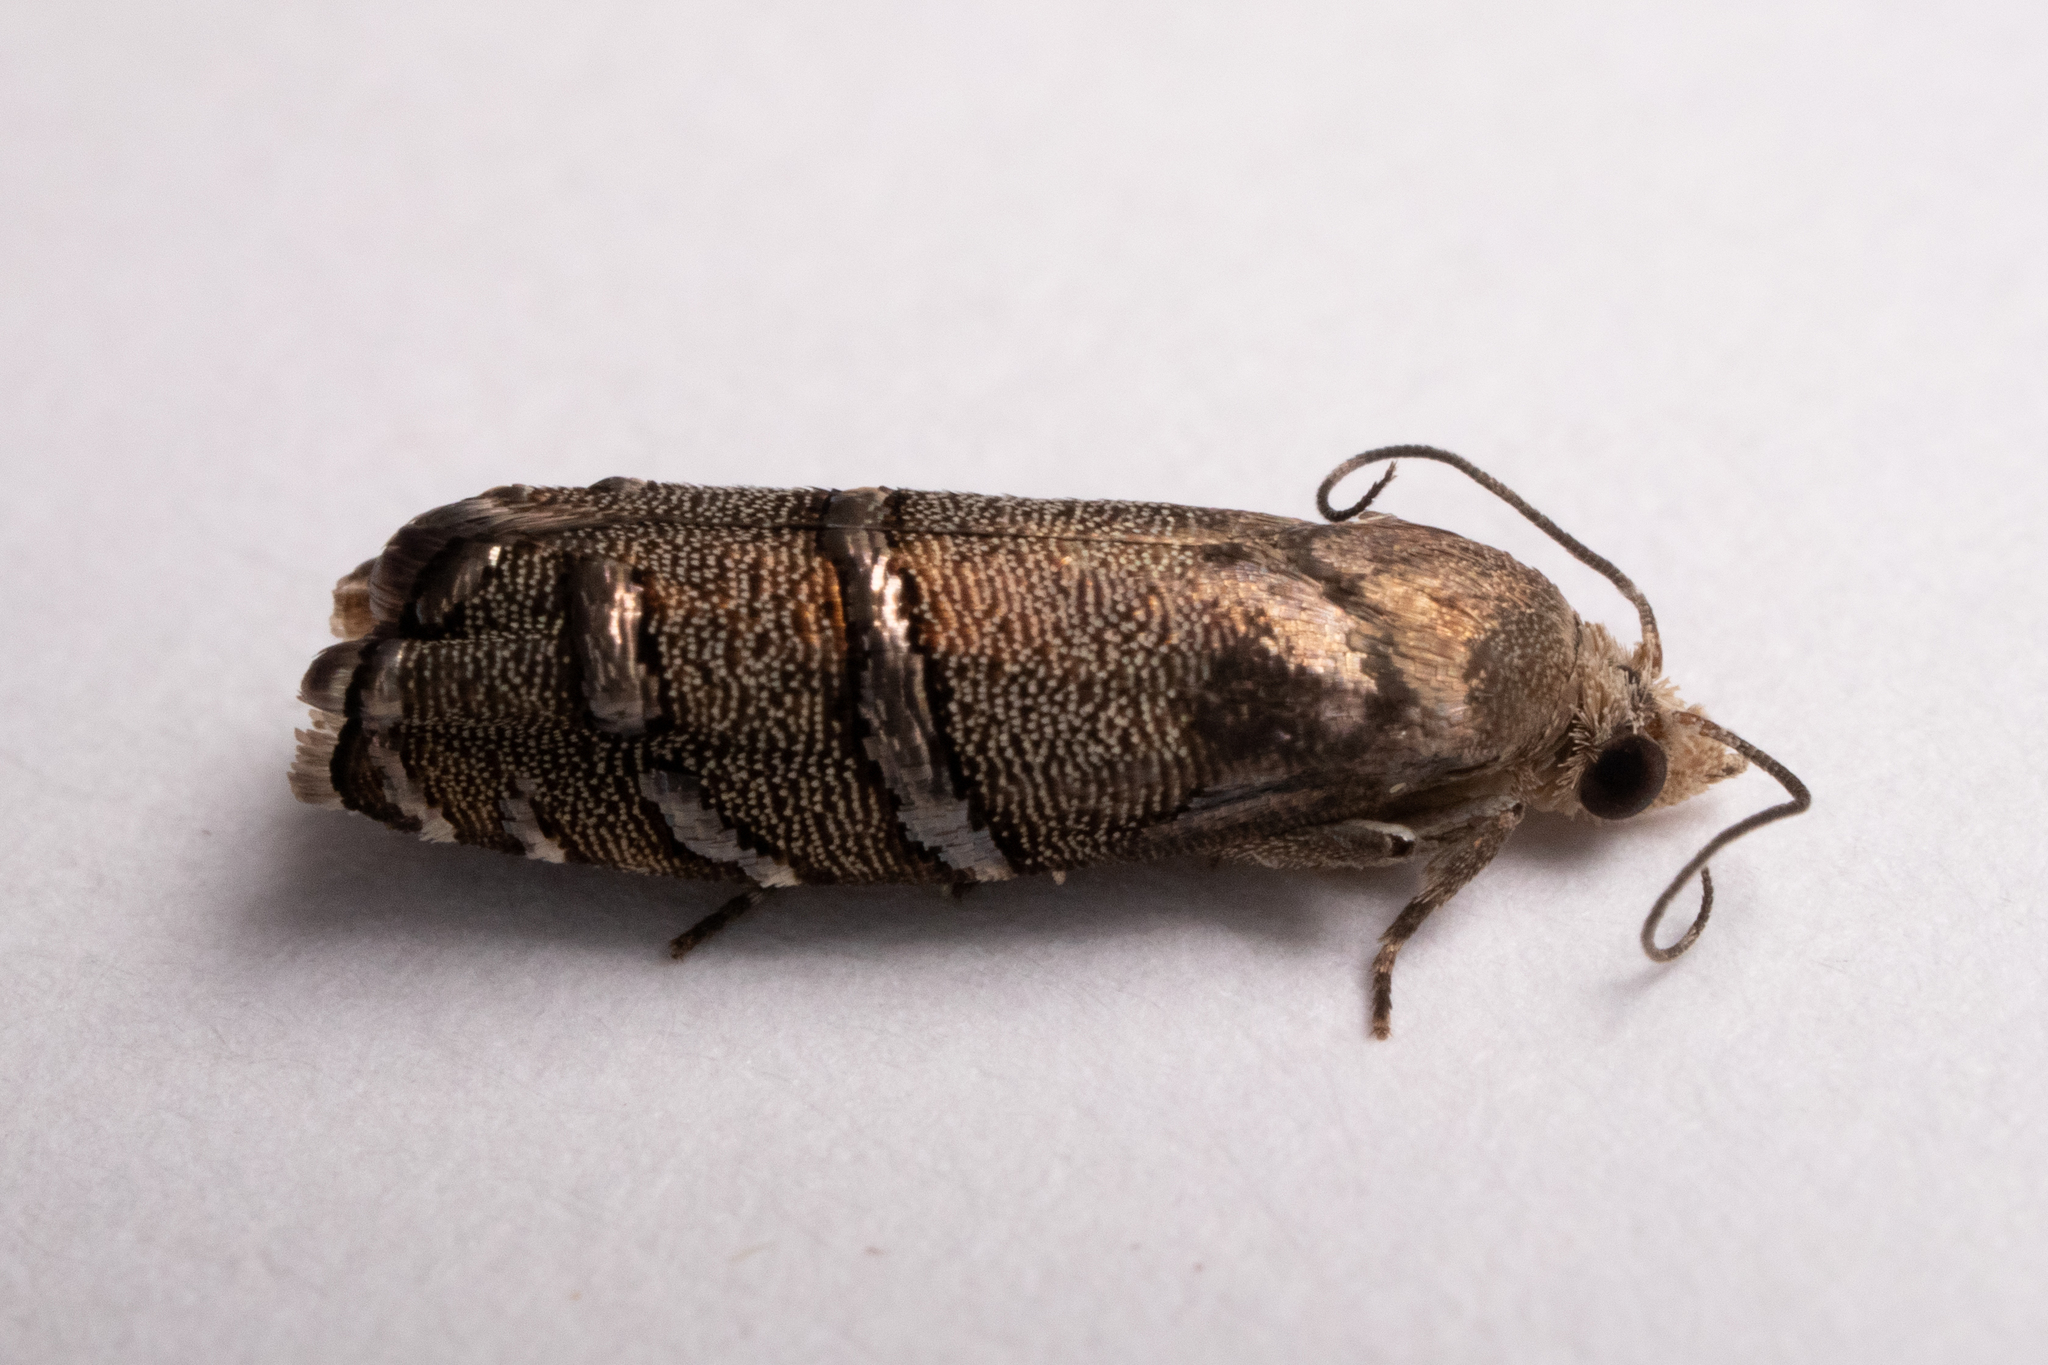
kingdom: Animalia
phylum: Arthropoda
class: Insecta
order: Lepidoptera
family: Tortricidae
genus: Cydia
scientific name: Cydia toreuta
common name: Eastern pine seedworm moth
